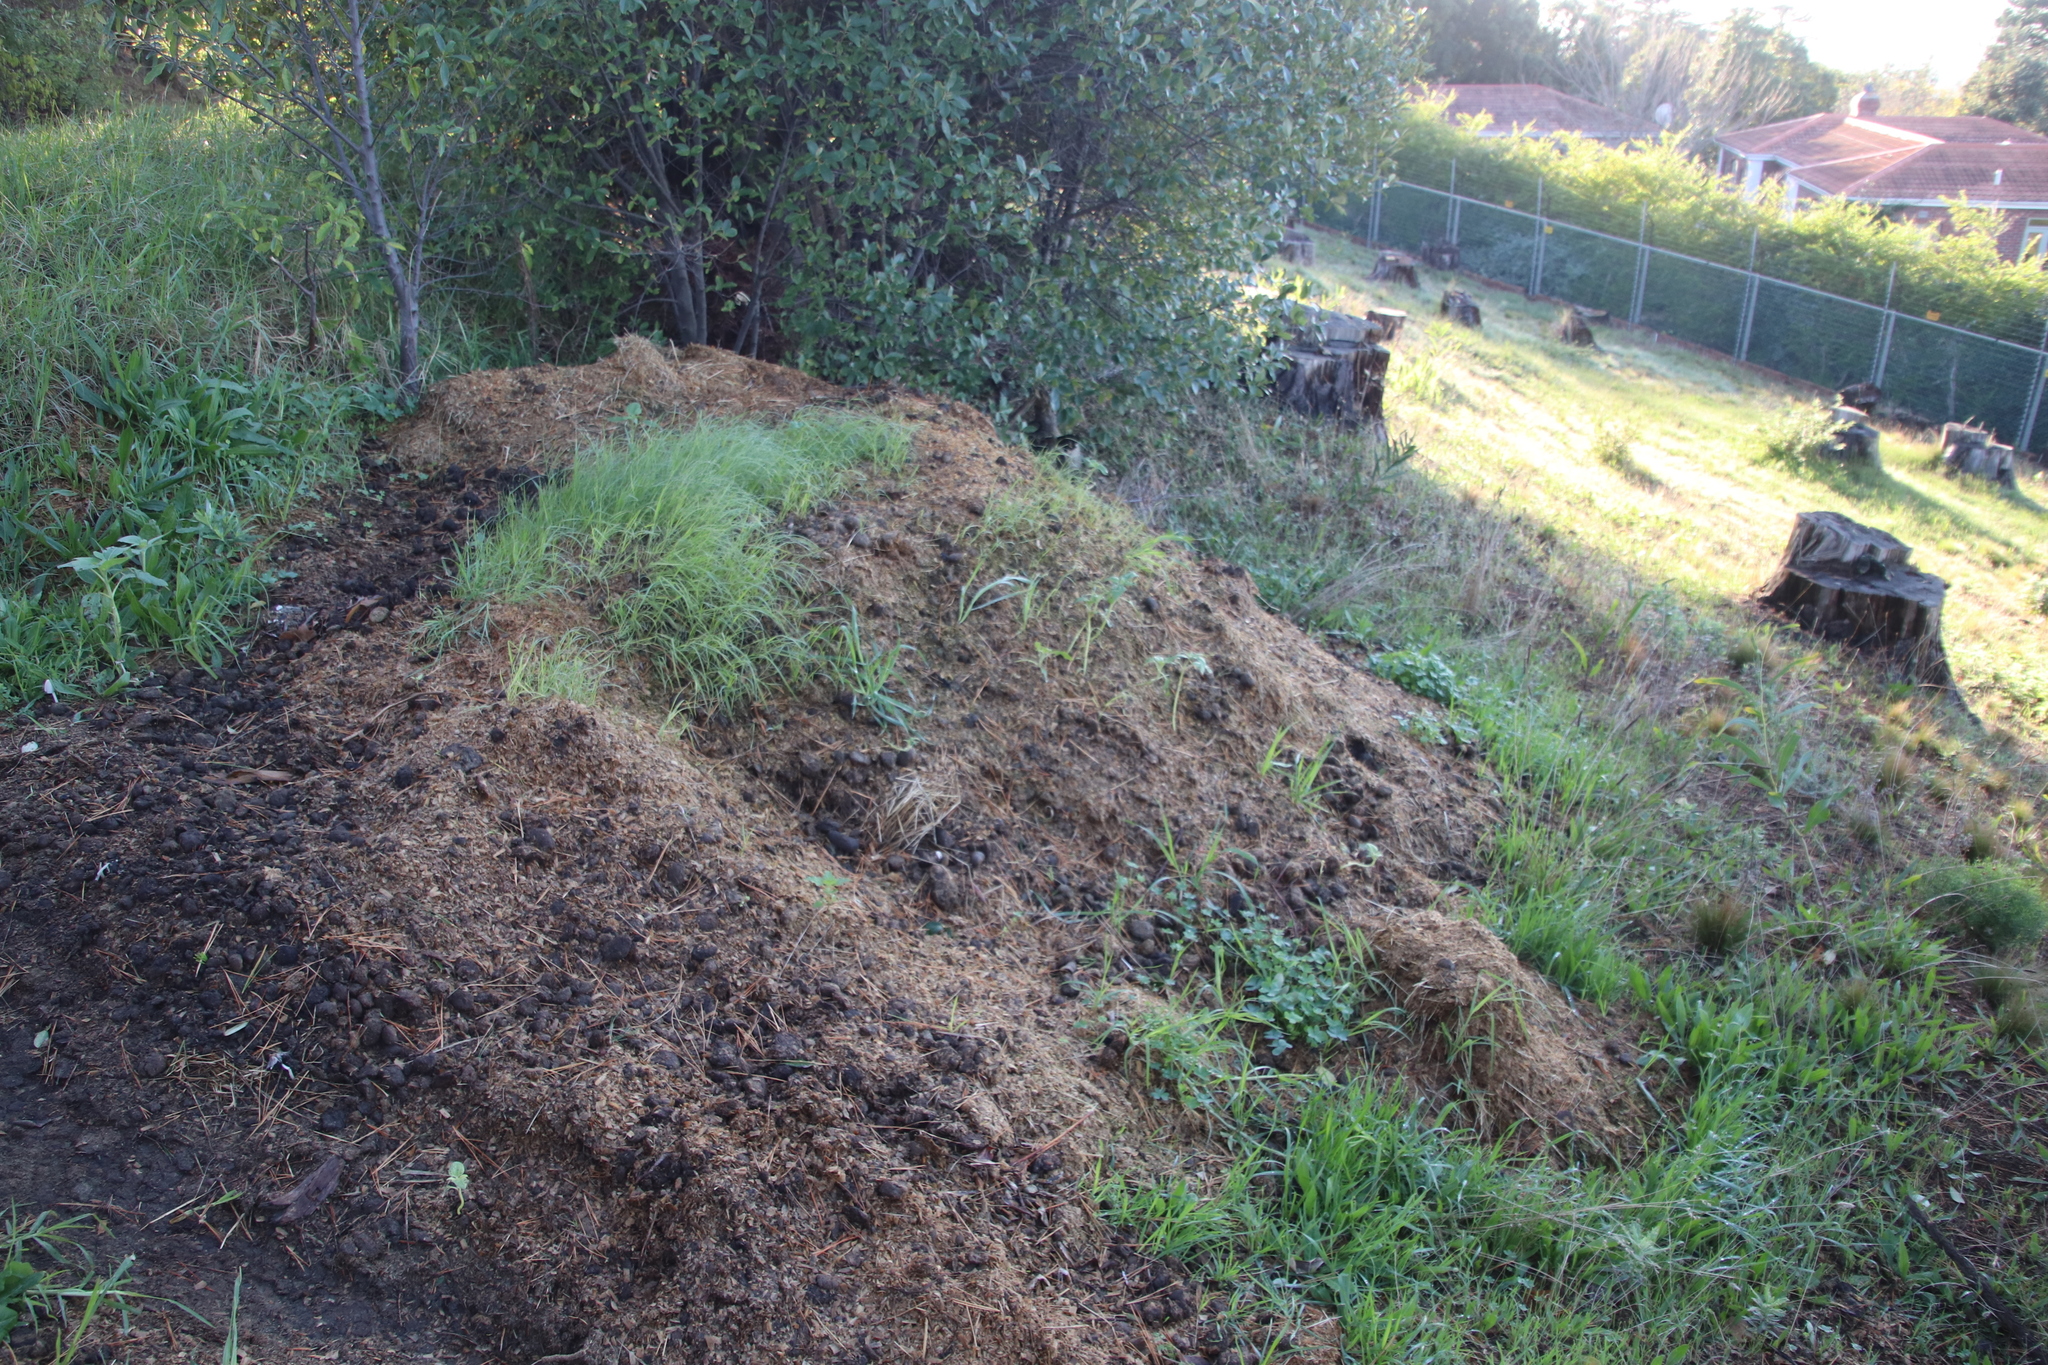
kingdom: Animalia
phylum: Chordata
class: Mammalia
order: Perissodactyla
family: Equidae
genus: Equus
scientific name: Equus caballus
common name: Horse
